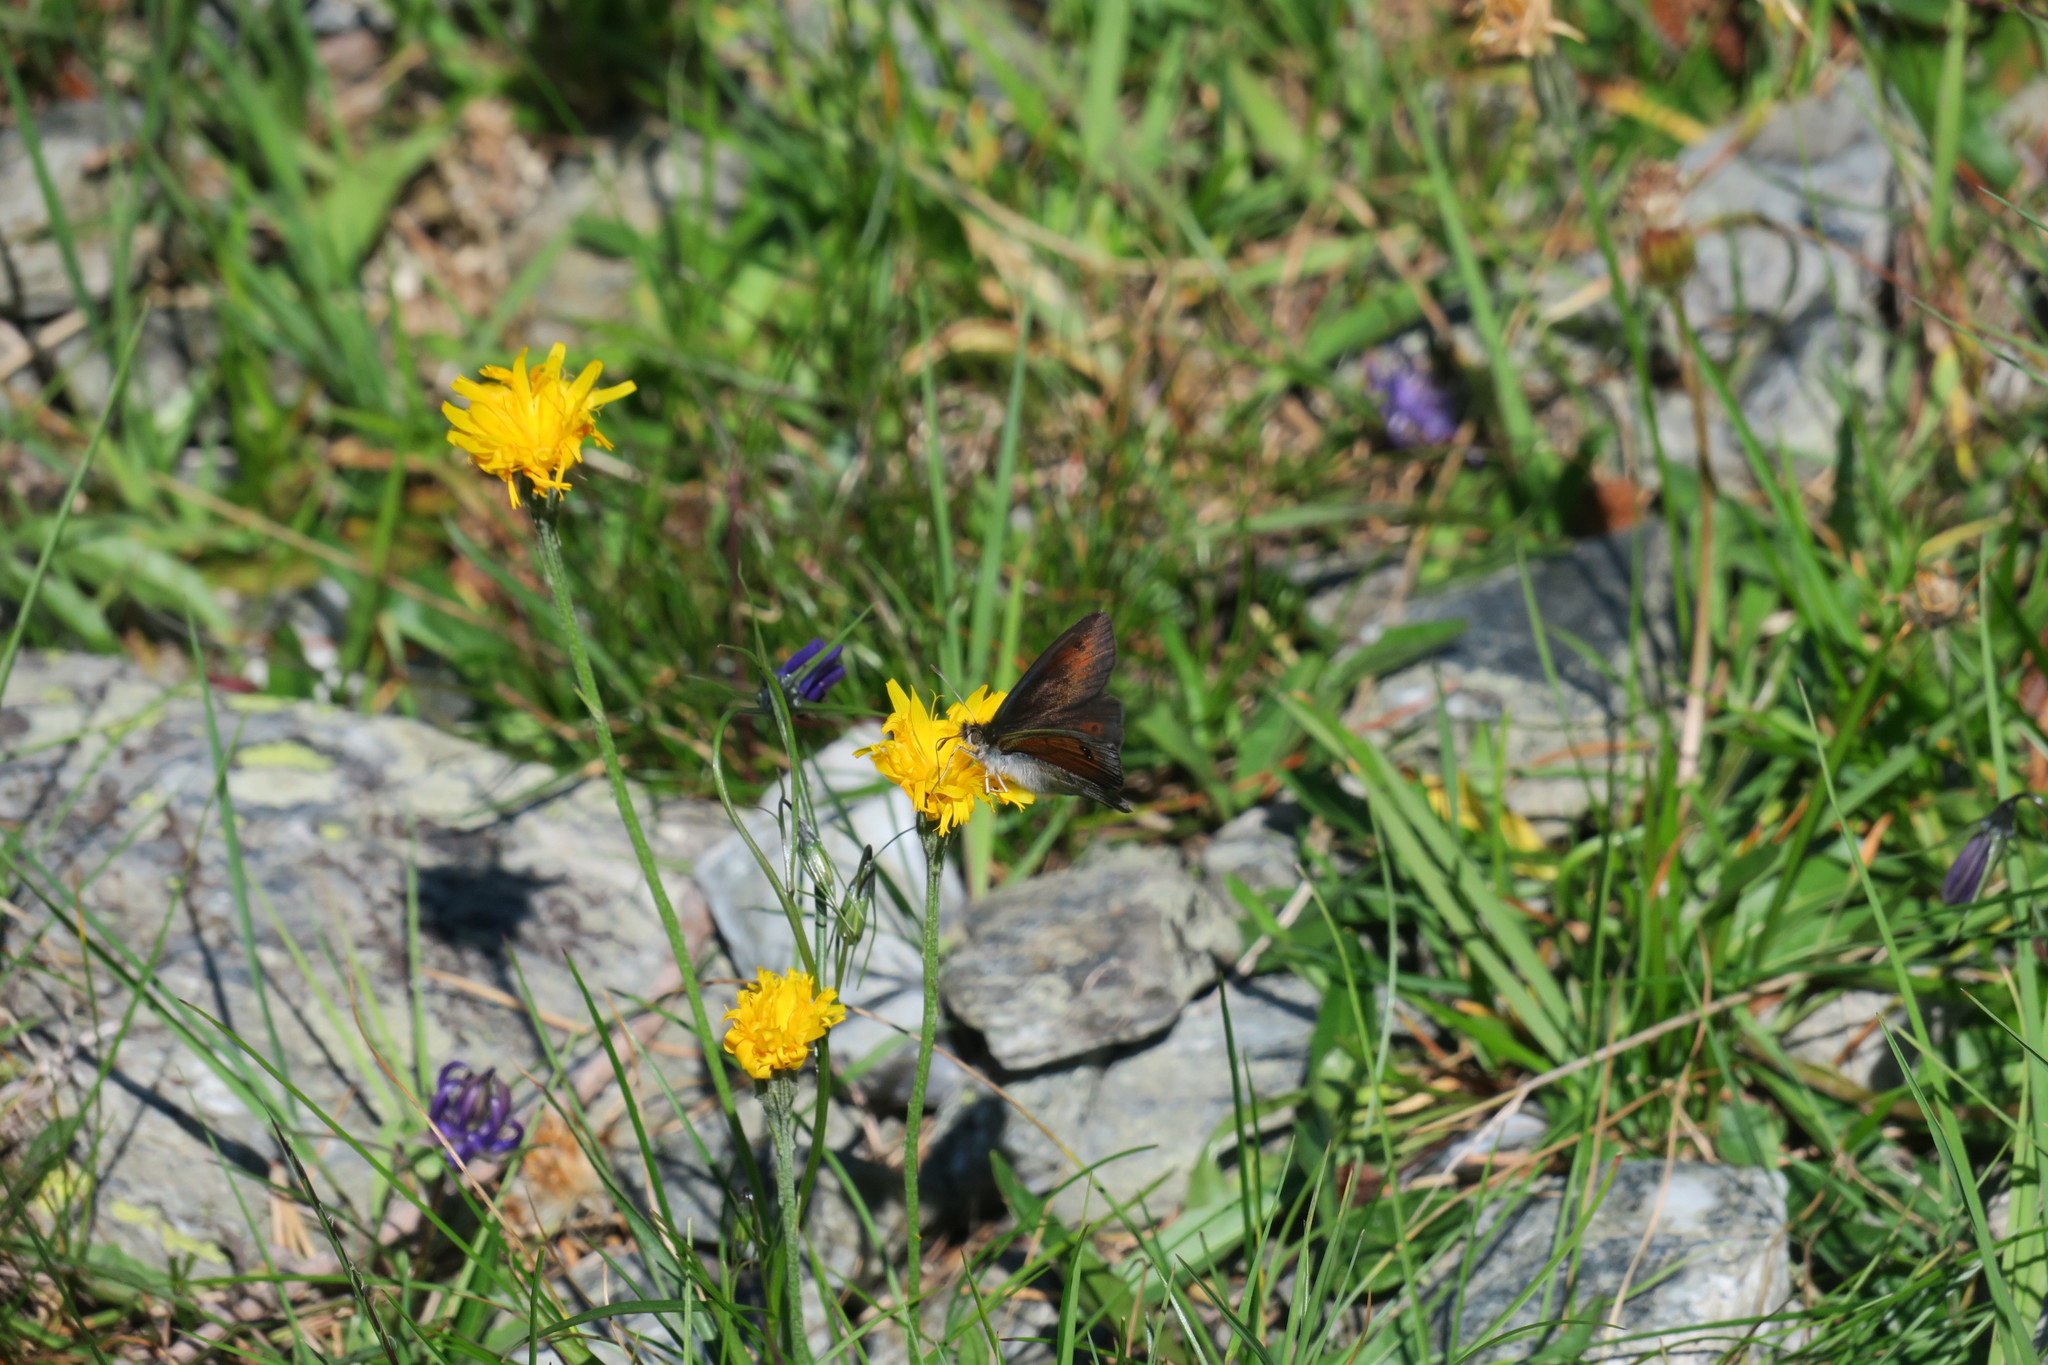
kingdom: Animalia
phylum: Arthropoda
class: Insecta
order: Lepidoptera
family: Nymphalidae
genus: Erebia
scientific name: Erebia cassioides
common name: Common brassy ringlet
